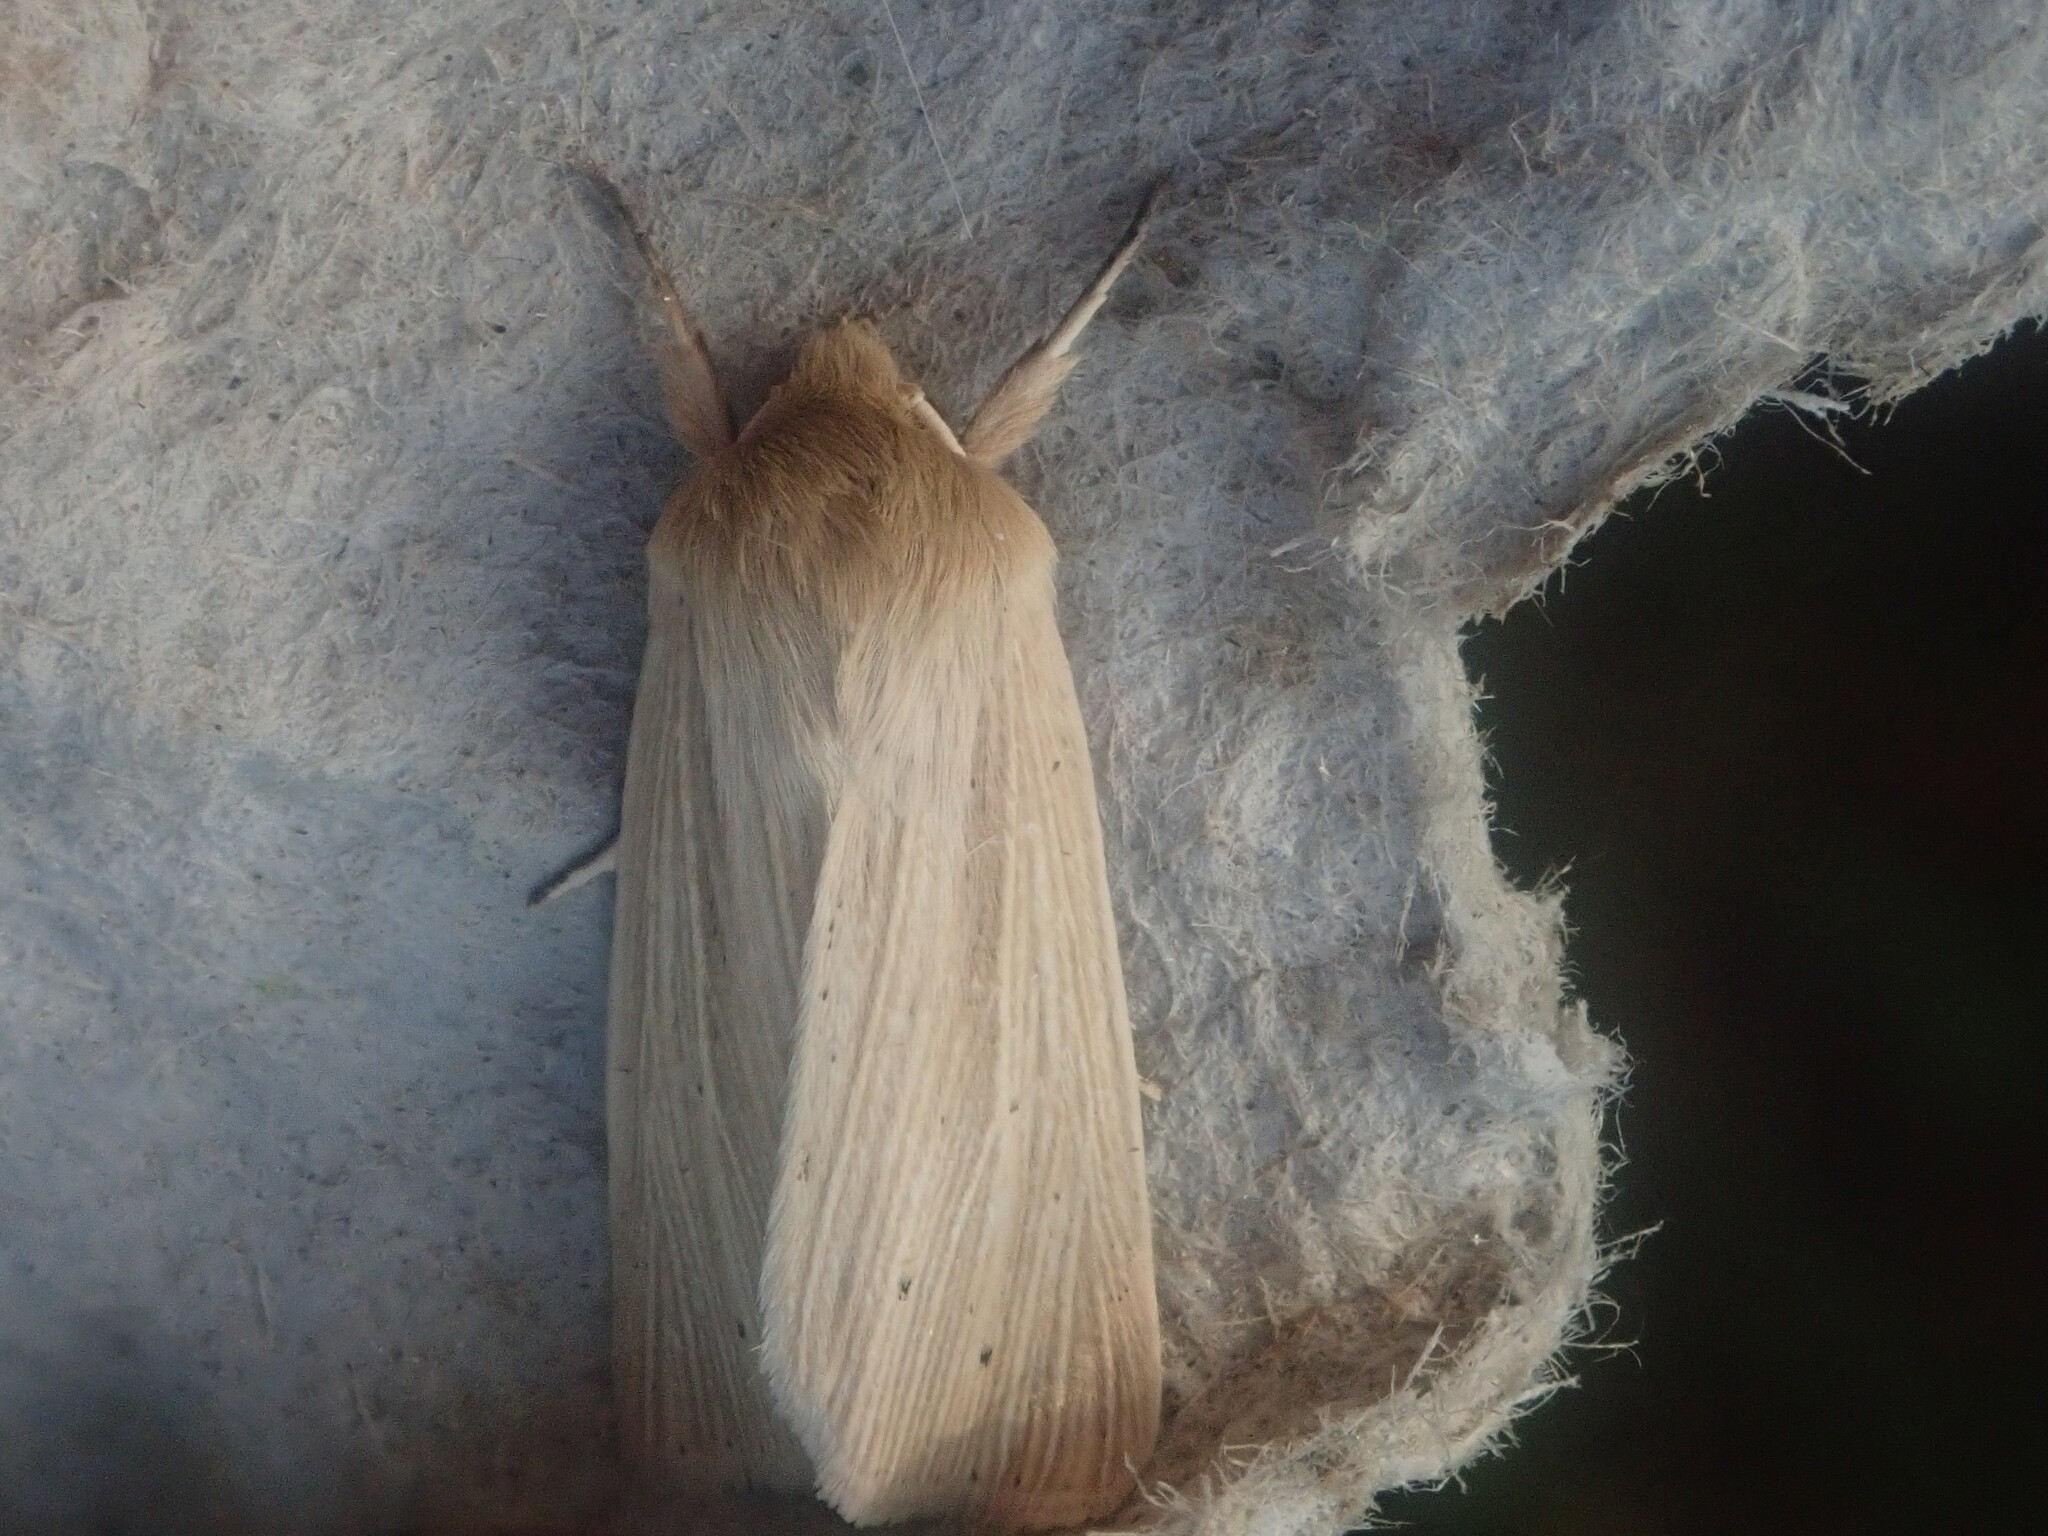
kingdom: Animalia
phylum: Arthropoda
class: Insecta
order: Lepidoptera
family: Noctuidae
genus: Mythimna
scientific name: Mythimna oxygala
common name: Lesser wainscot
